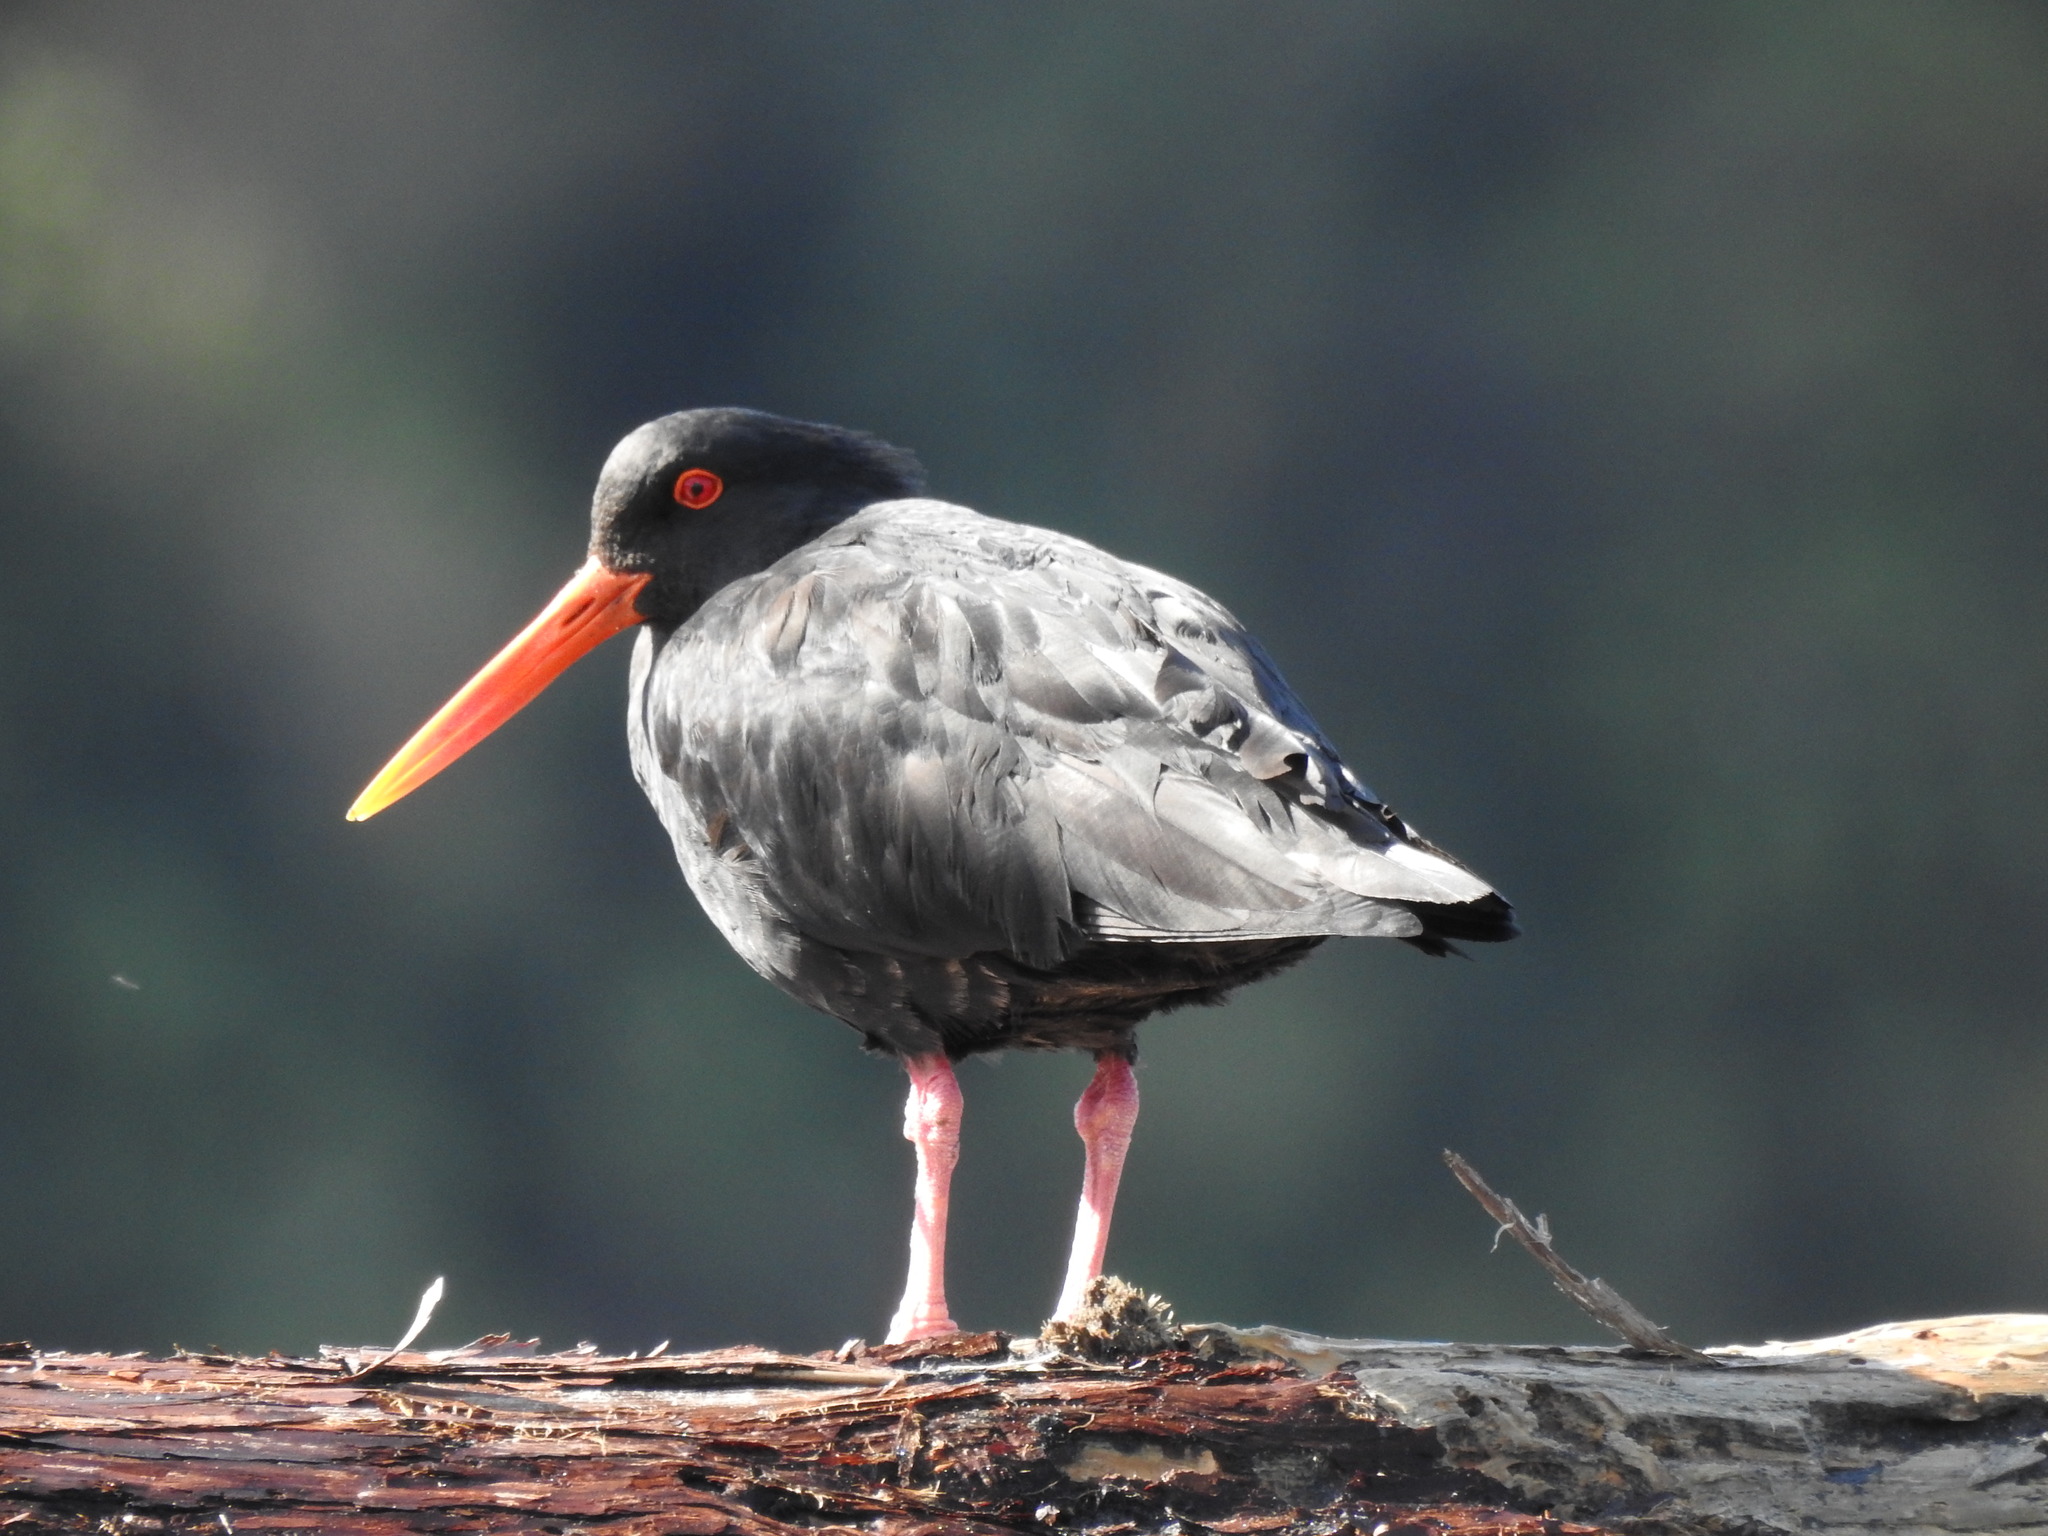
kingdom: Animalia
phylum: Chordata
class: Aves
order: Charadriiformes
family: Haematopodidae
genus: Haematopus
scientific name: Haematopus unicolor
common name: Variable oystercatcher
